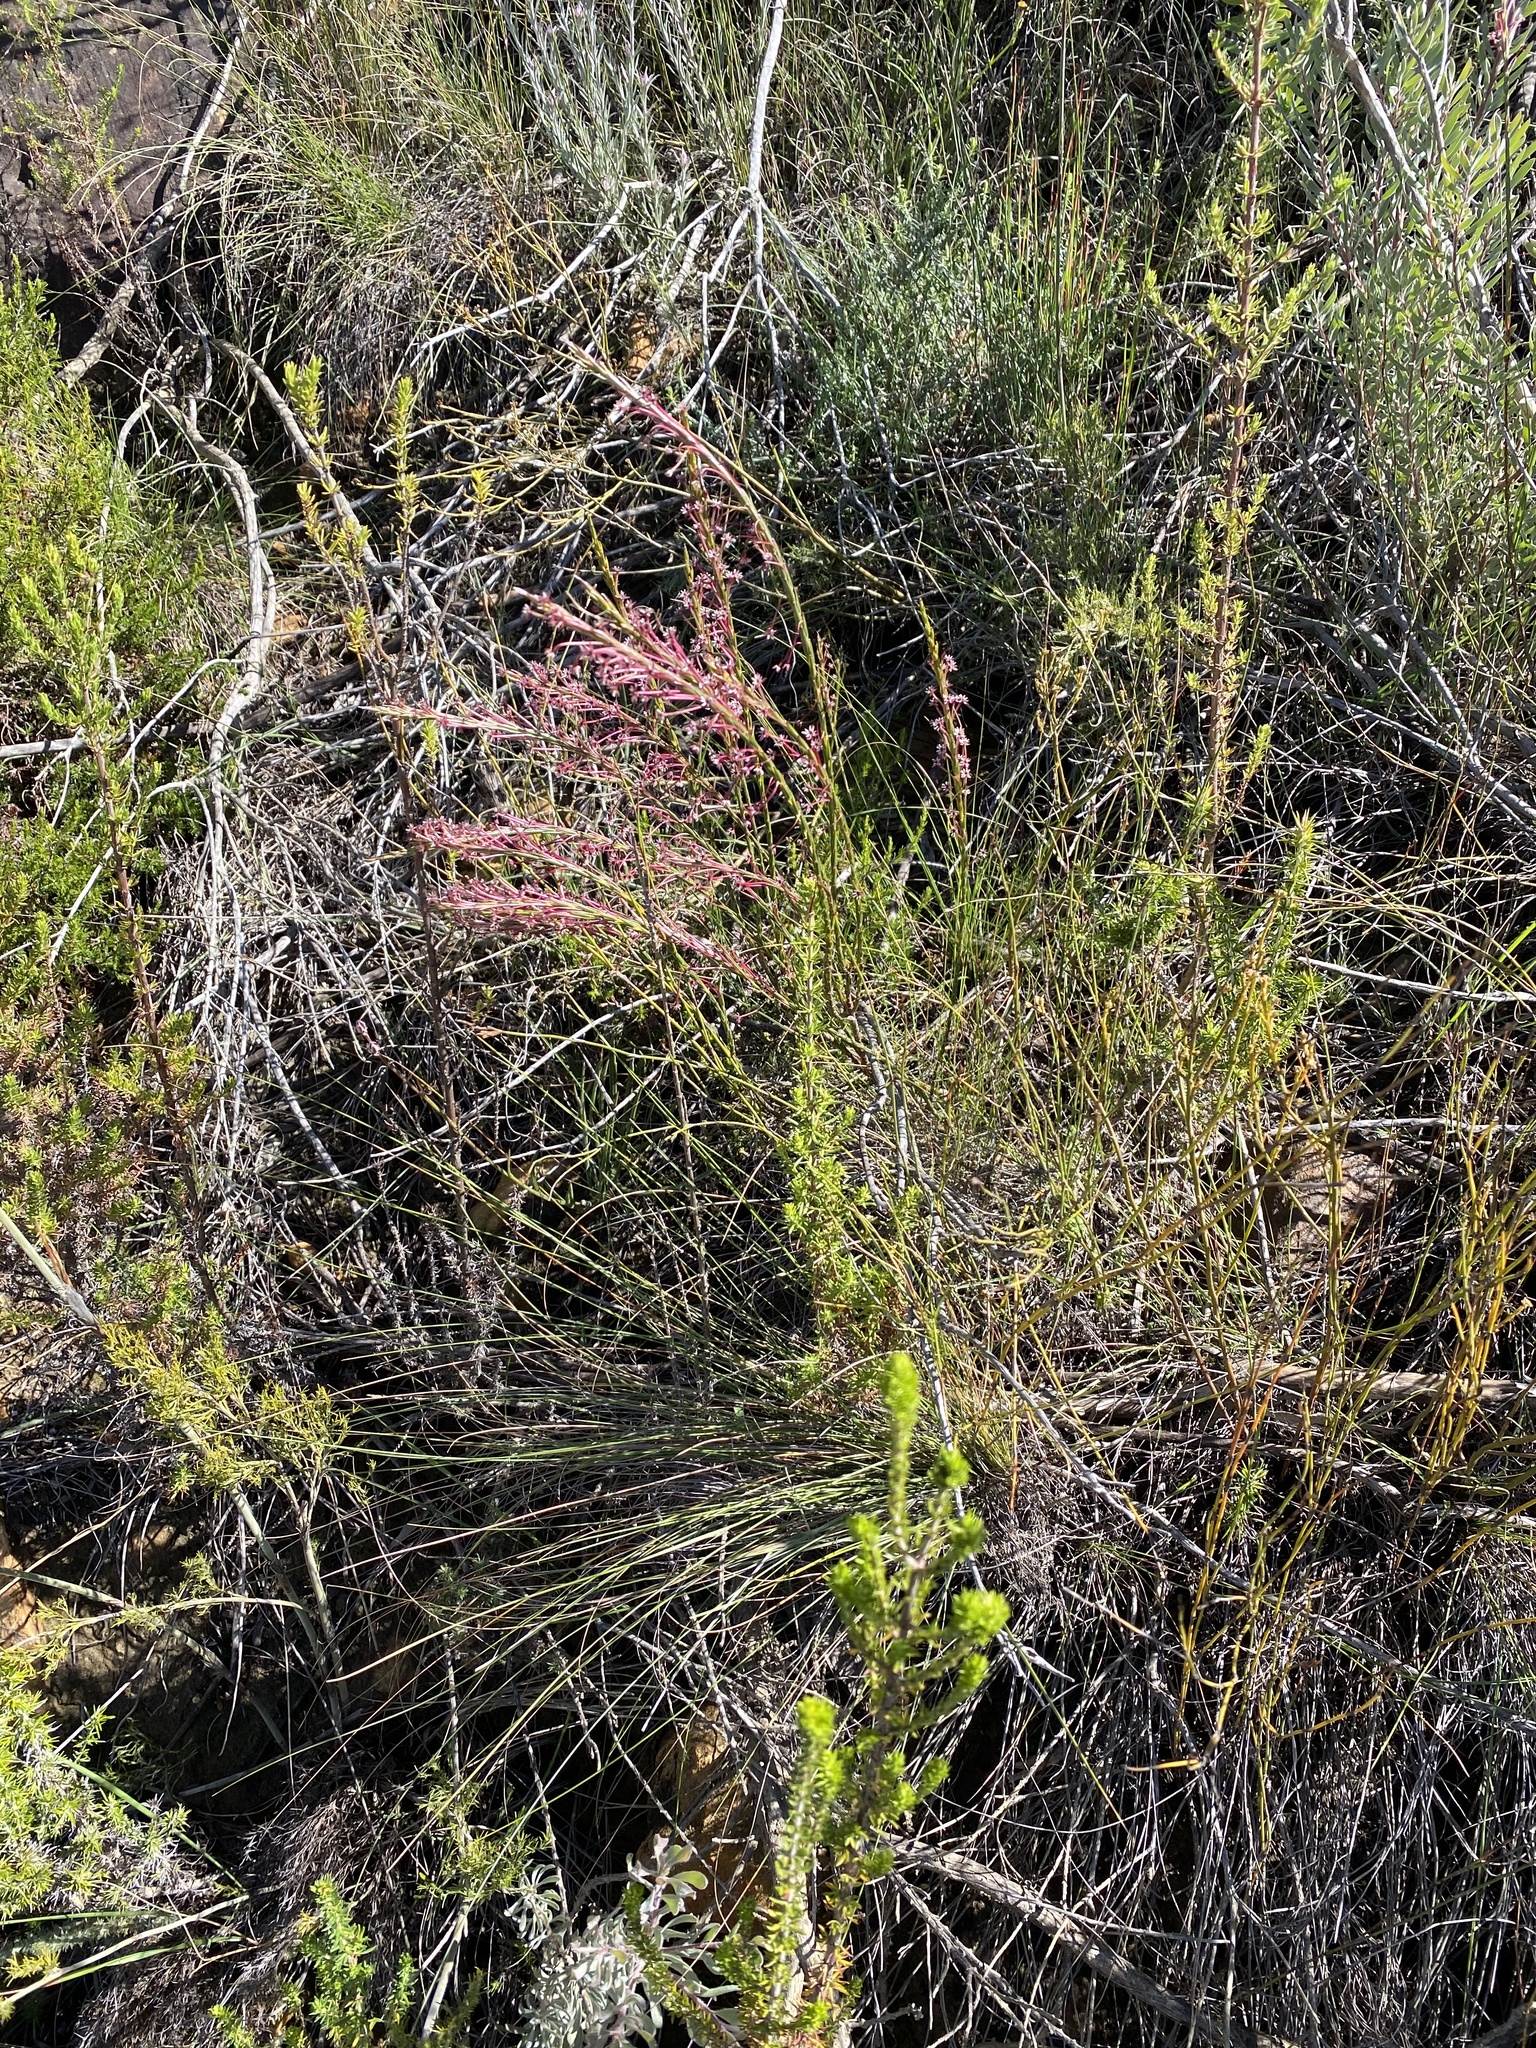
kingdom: Plantae
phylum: Tracheophyta
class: Magnoliopsida
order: Malvales
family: Thymelaeaceae
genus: Struthiola
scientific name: Struthiola macowanii
